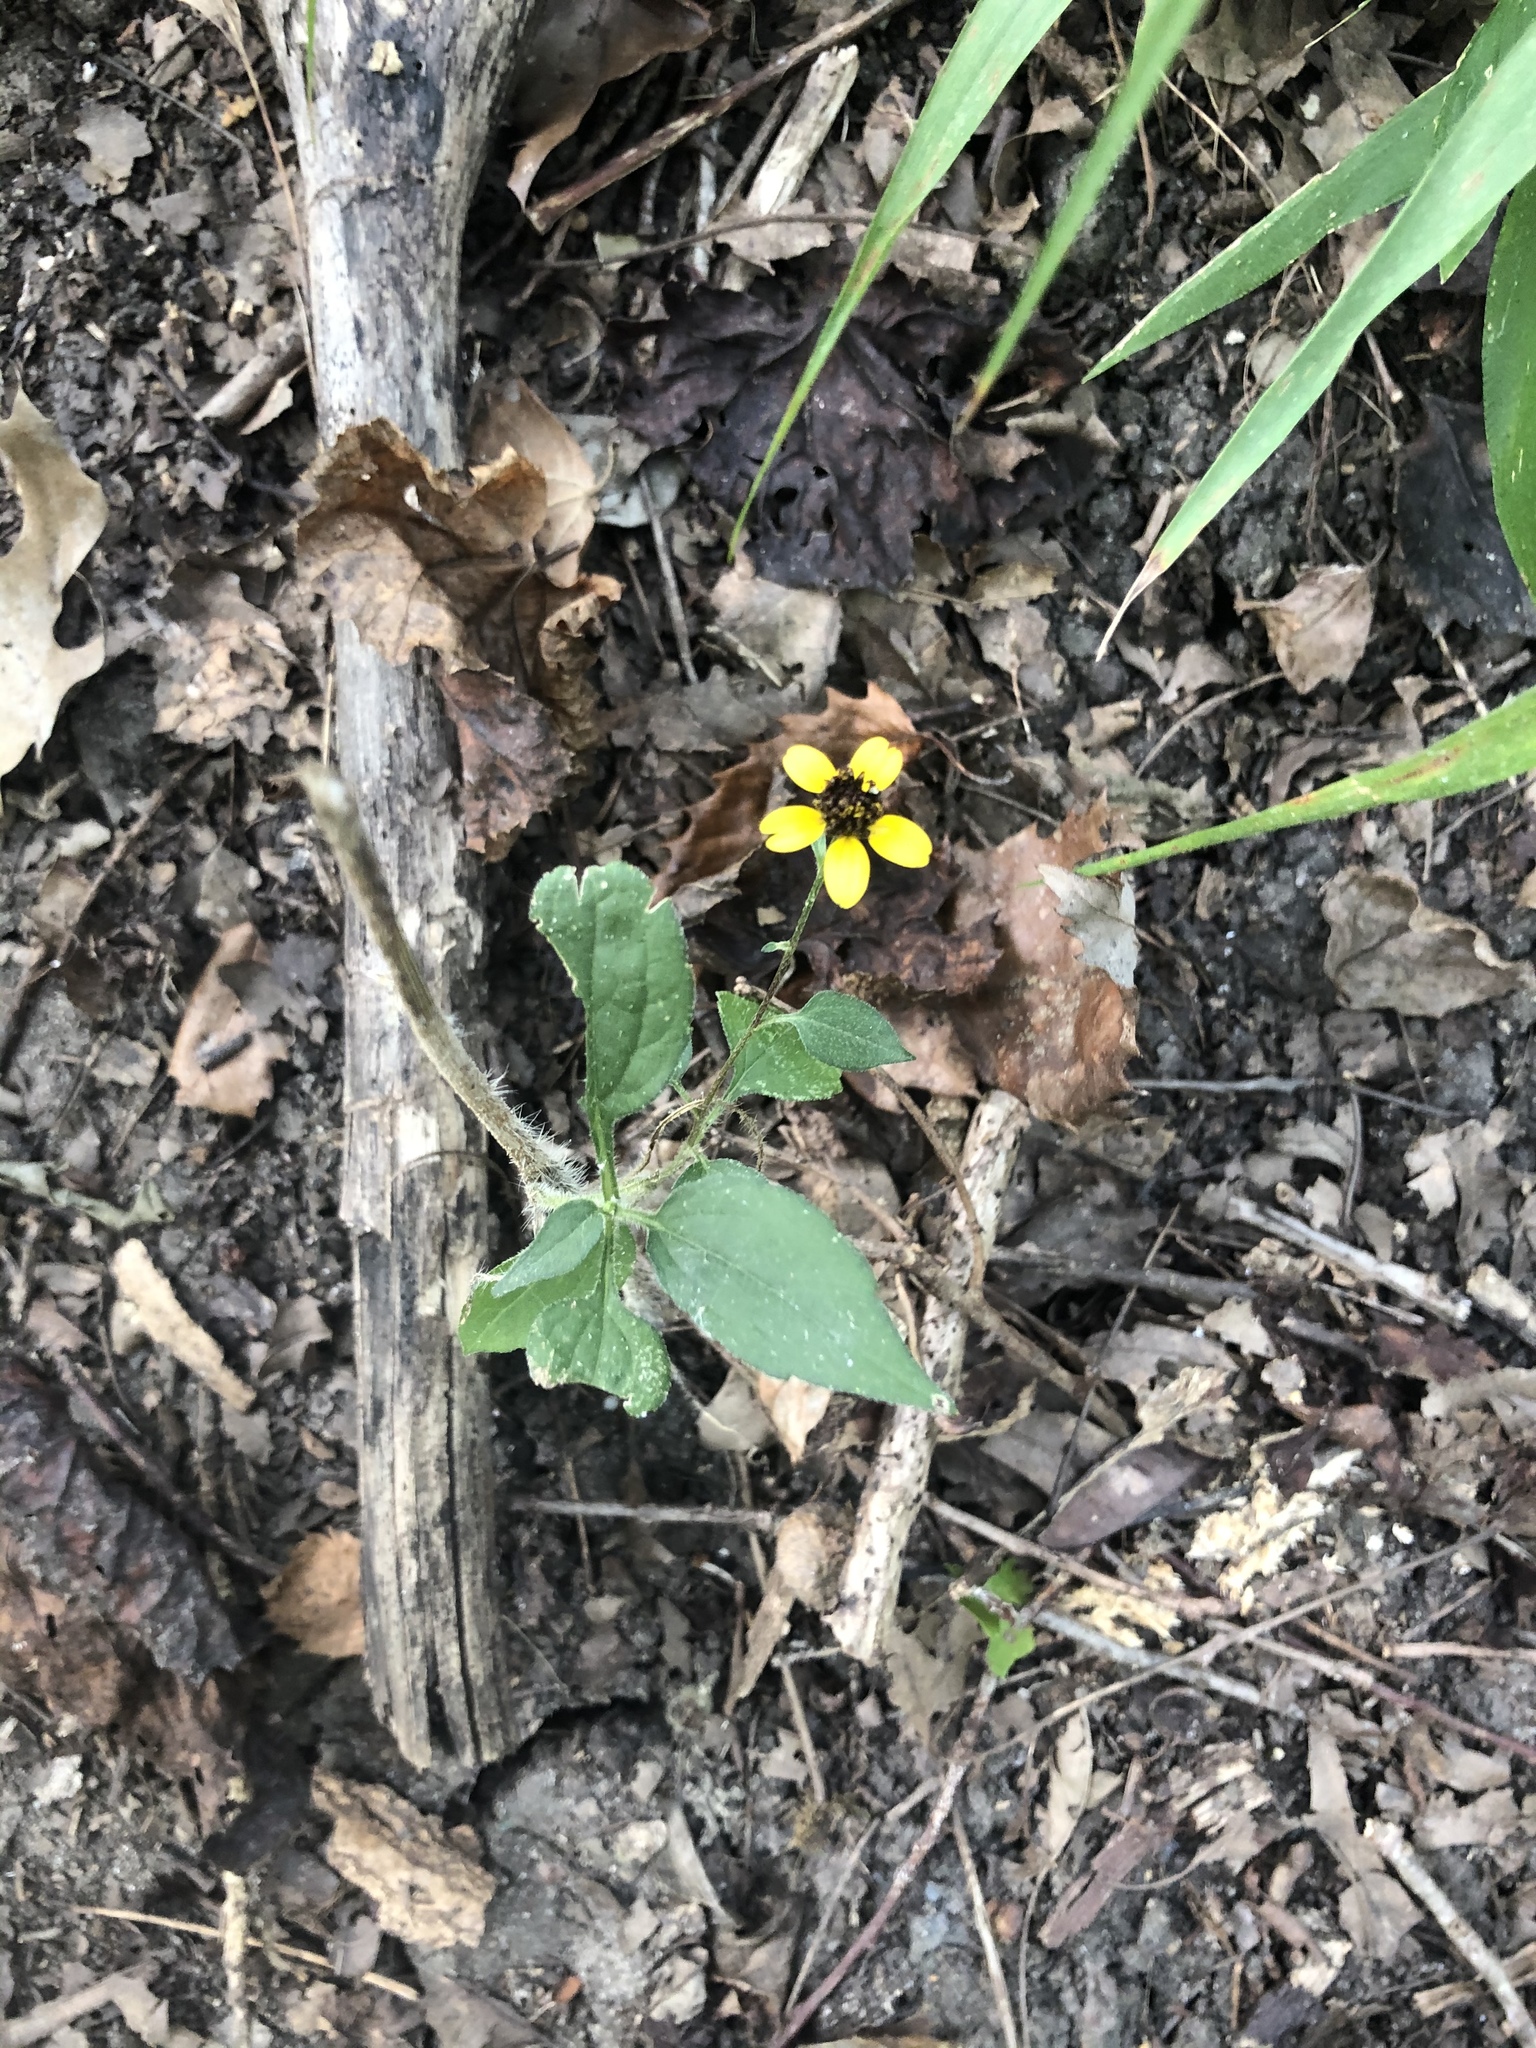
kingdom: Plantae
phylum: Tracheophyta
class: Magnoliopsida
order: Asterales
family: Asteraceae
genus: Rudbeckia
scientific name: Rudbeckia triloba
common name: Thin-leaved coneflower
